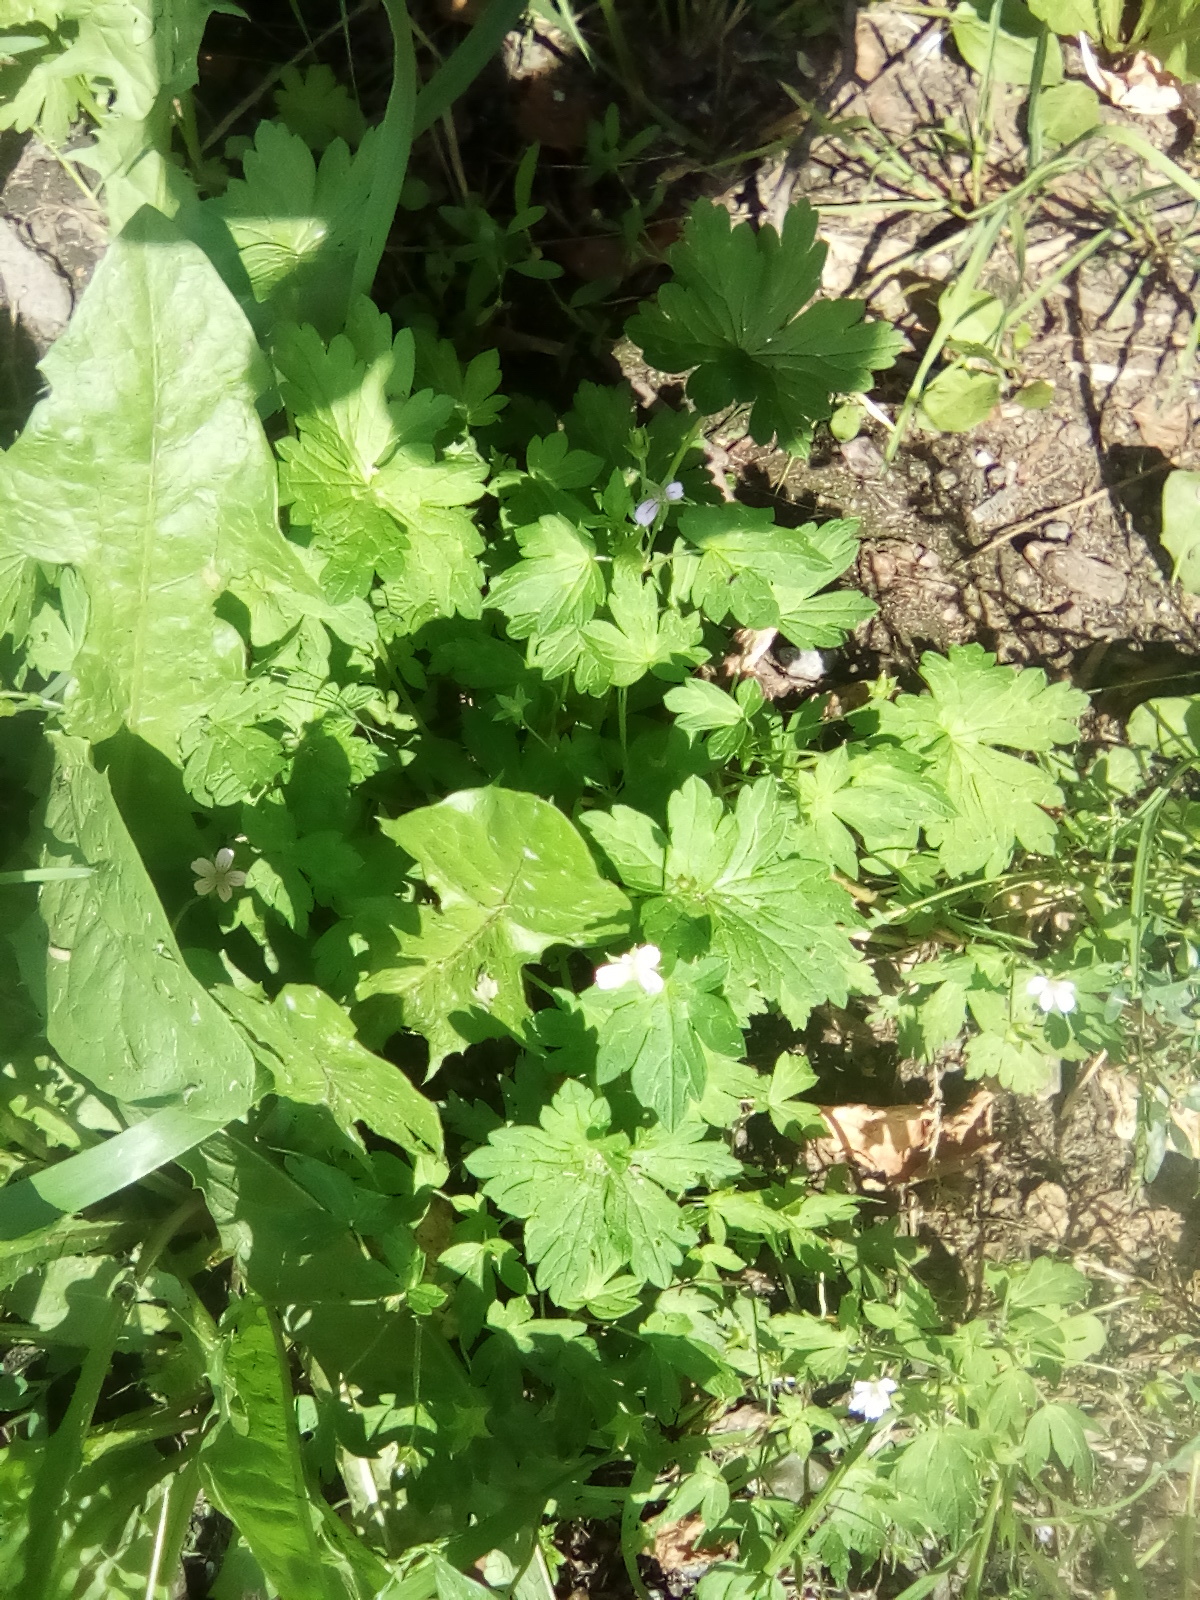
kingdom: Plantae
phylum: Tracheophyta
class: Magnoliopsida
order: Geraniales
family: Geraniaceae
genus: Geranium
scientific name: Geranium sibiricum
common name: Siberian crane's-bill
